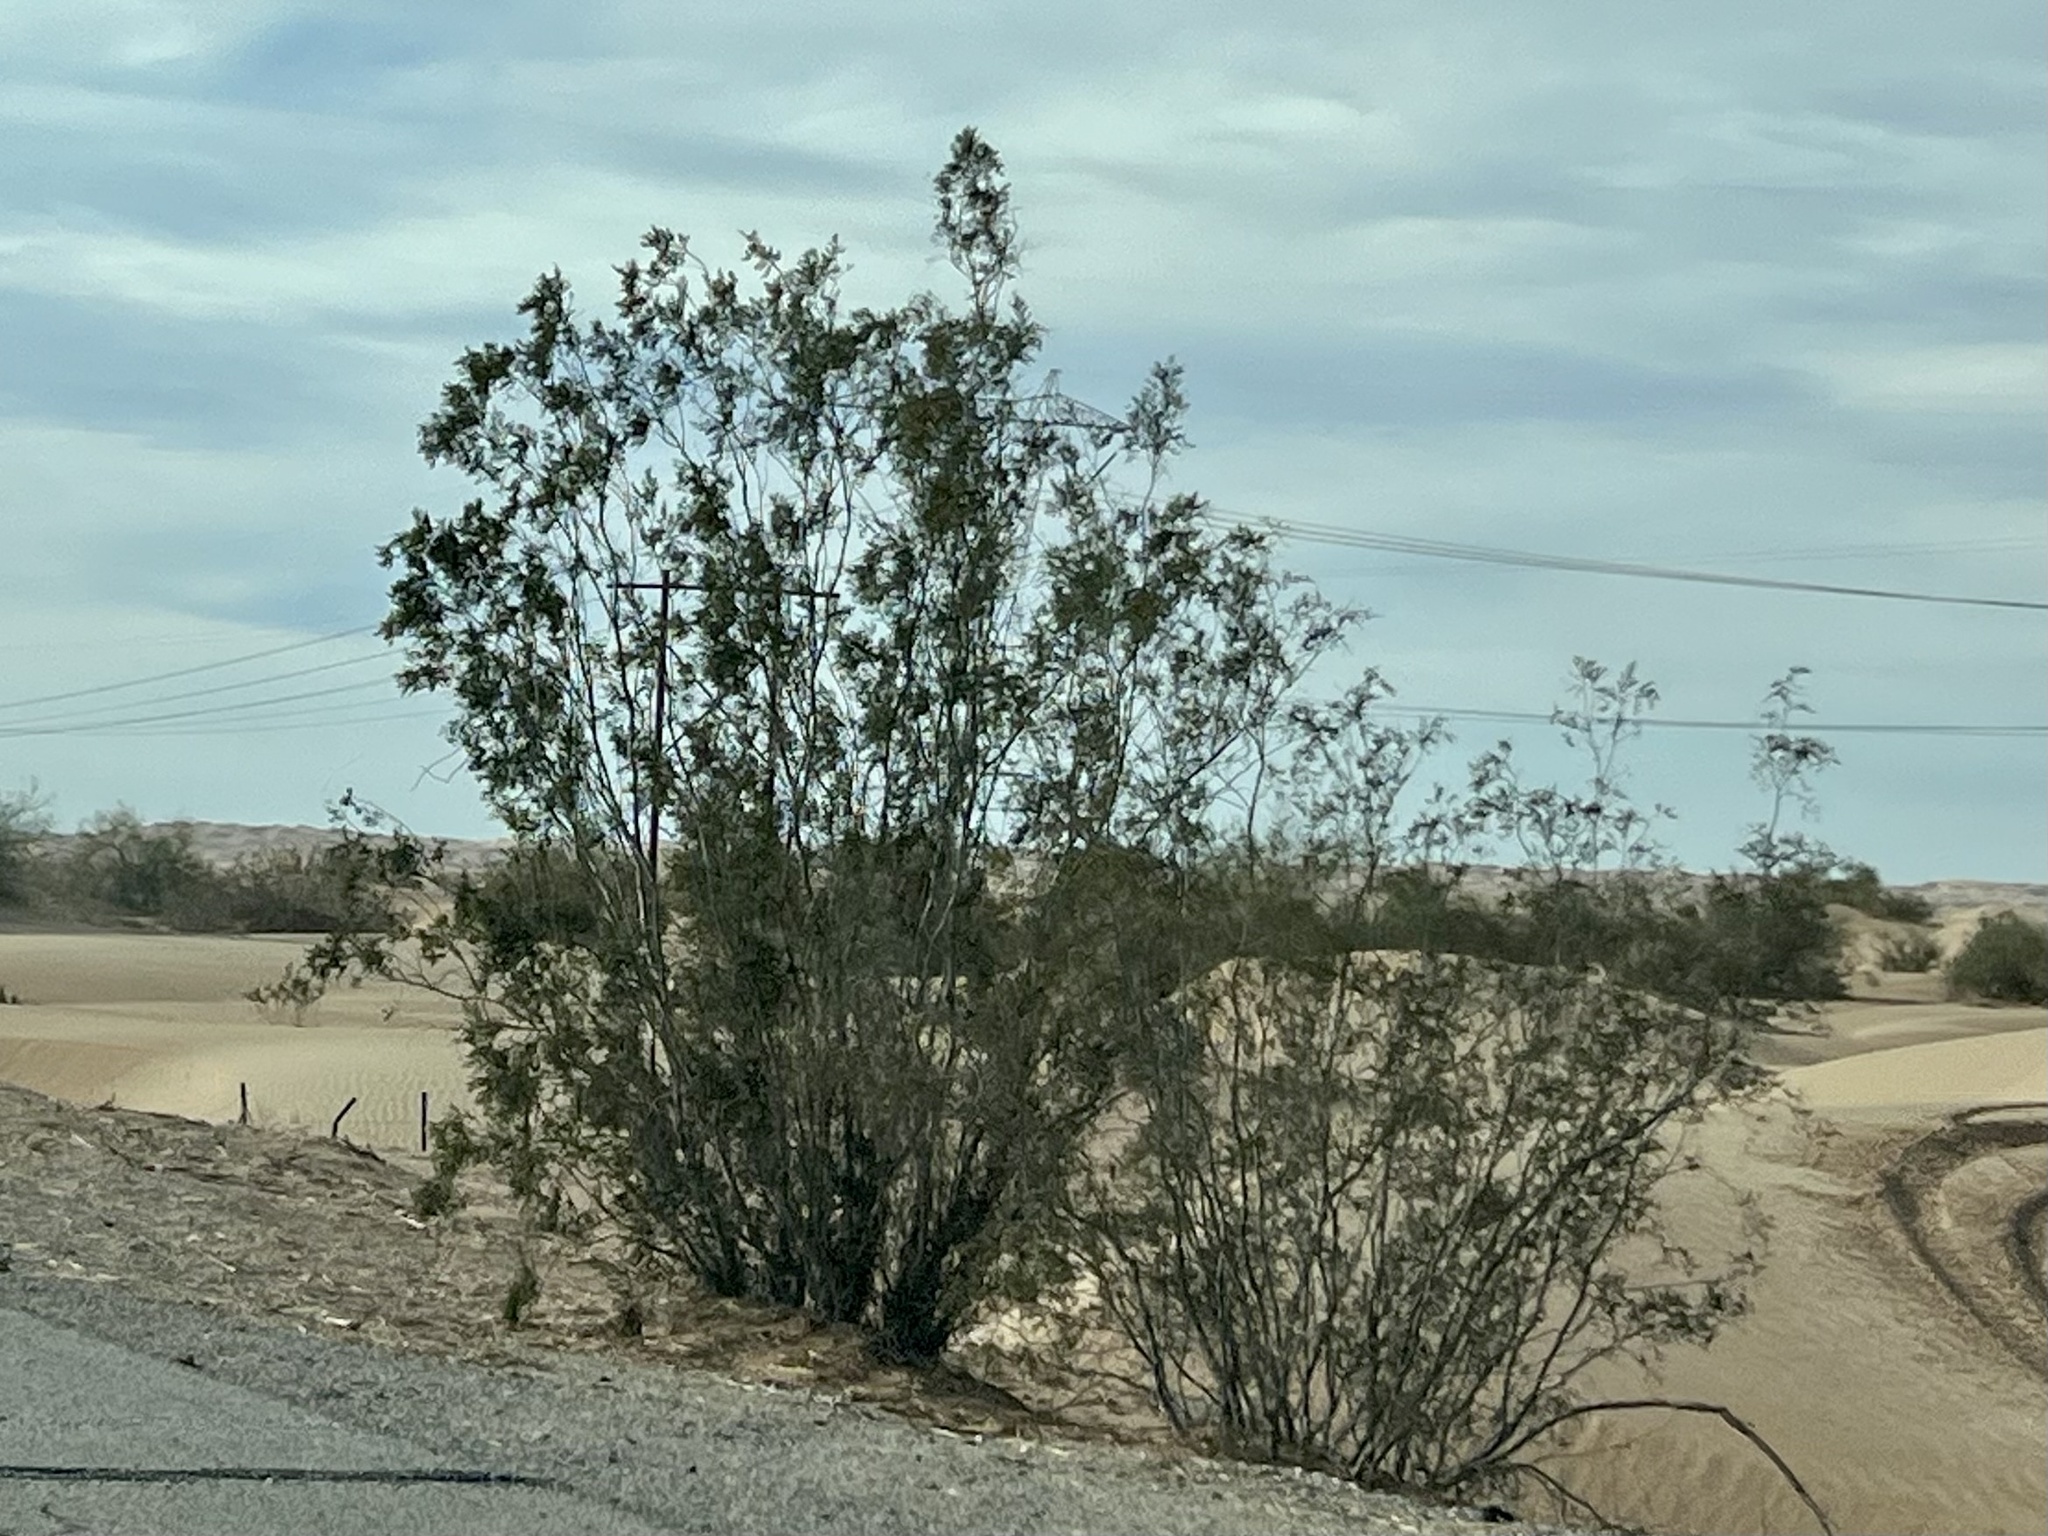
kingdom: Plantae
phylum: Tracheophyta
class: Magnoliopsida
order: Zygophyllales
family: Zygophyllaceae
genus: Larrea
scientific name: Larrea tridentata
